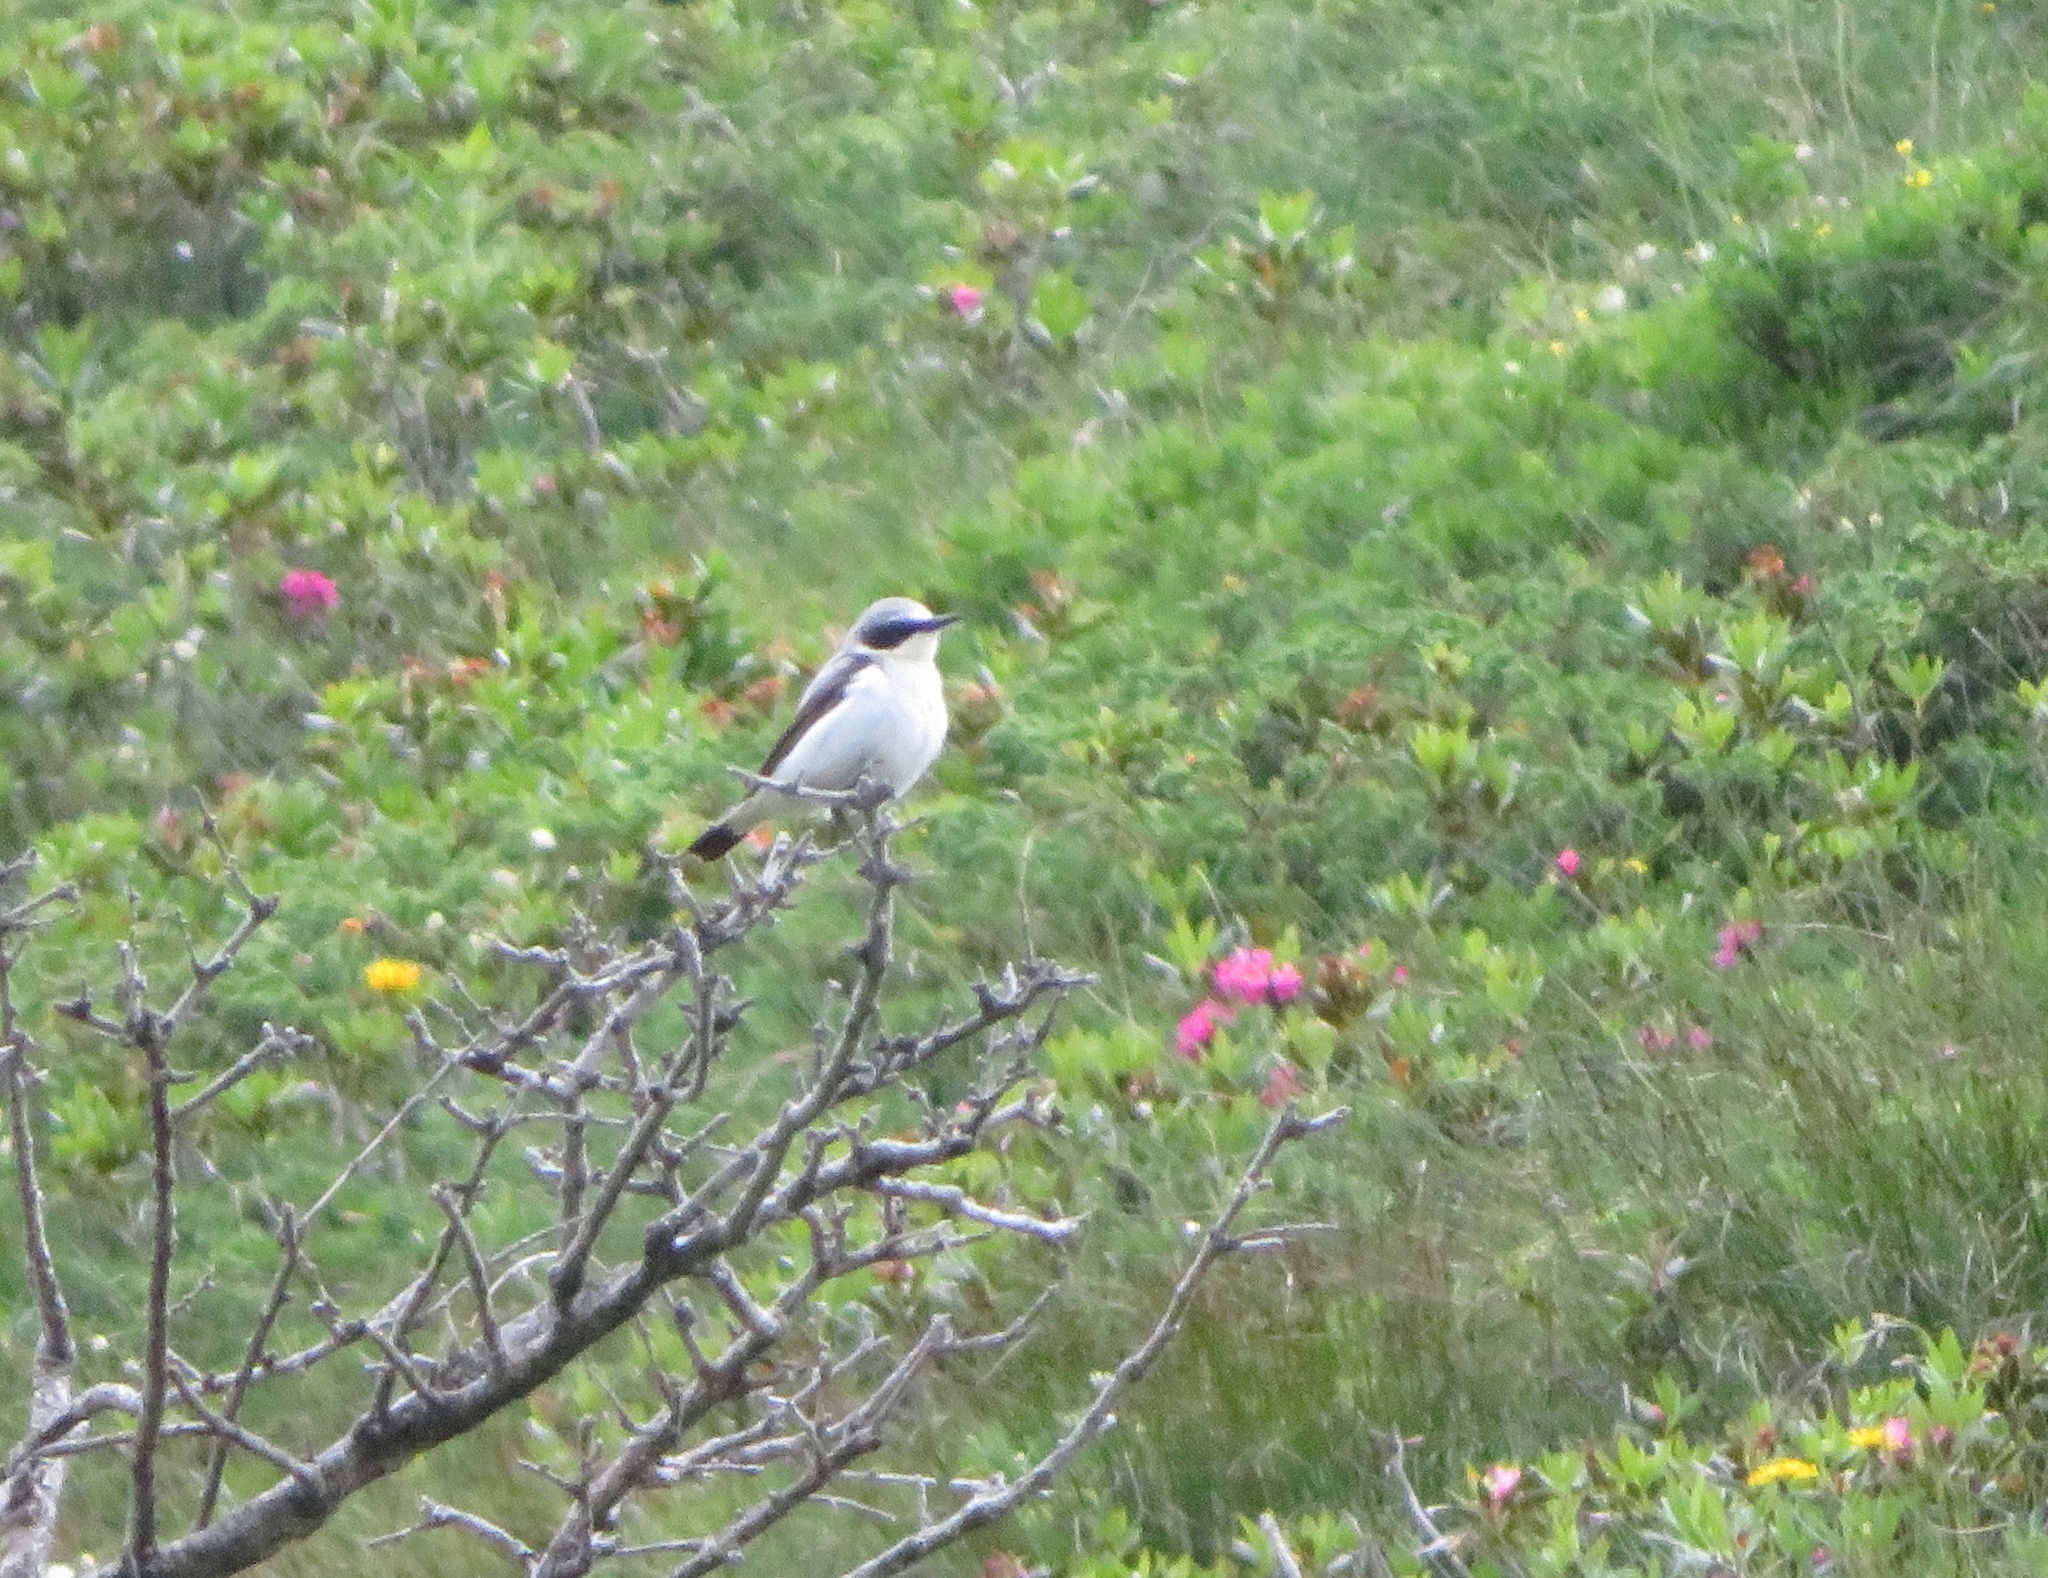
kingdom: Animalia
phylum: Chordata
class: Aves
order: Passeriformes
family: Muscicapidae
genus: Oenanthe
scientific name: Oenanthe oenanthe
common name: Northern wheatear
